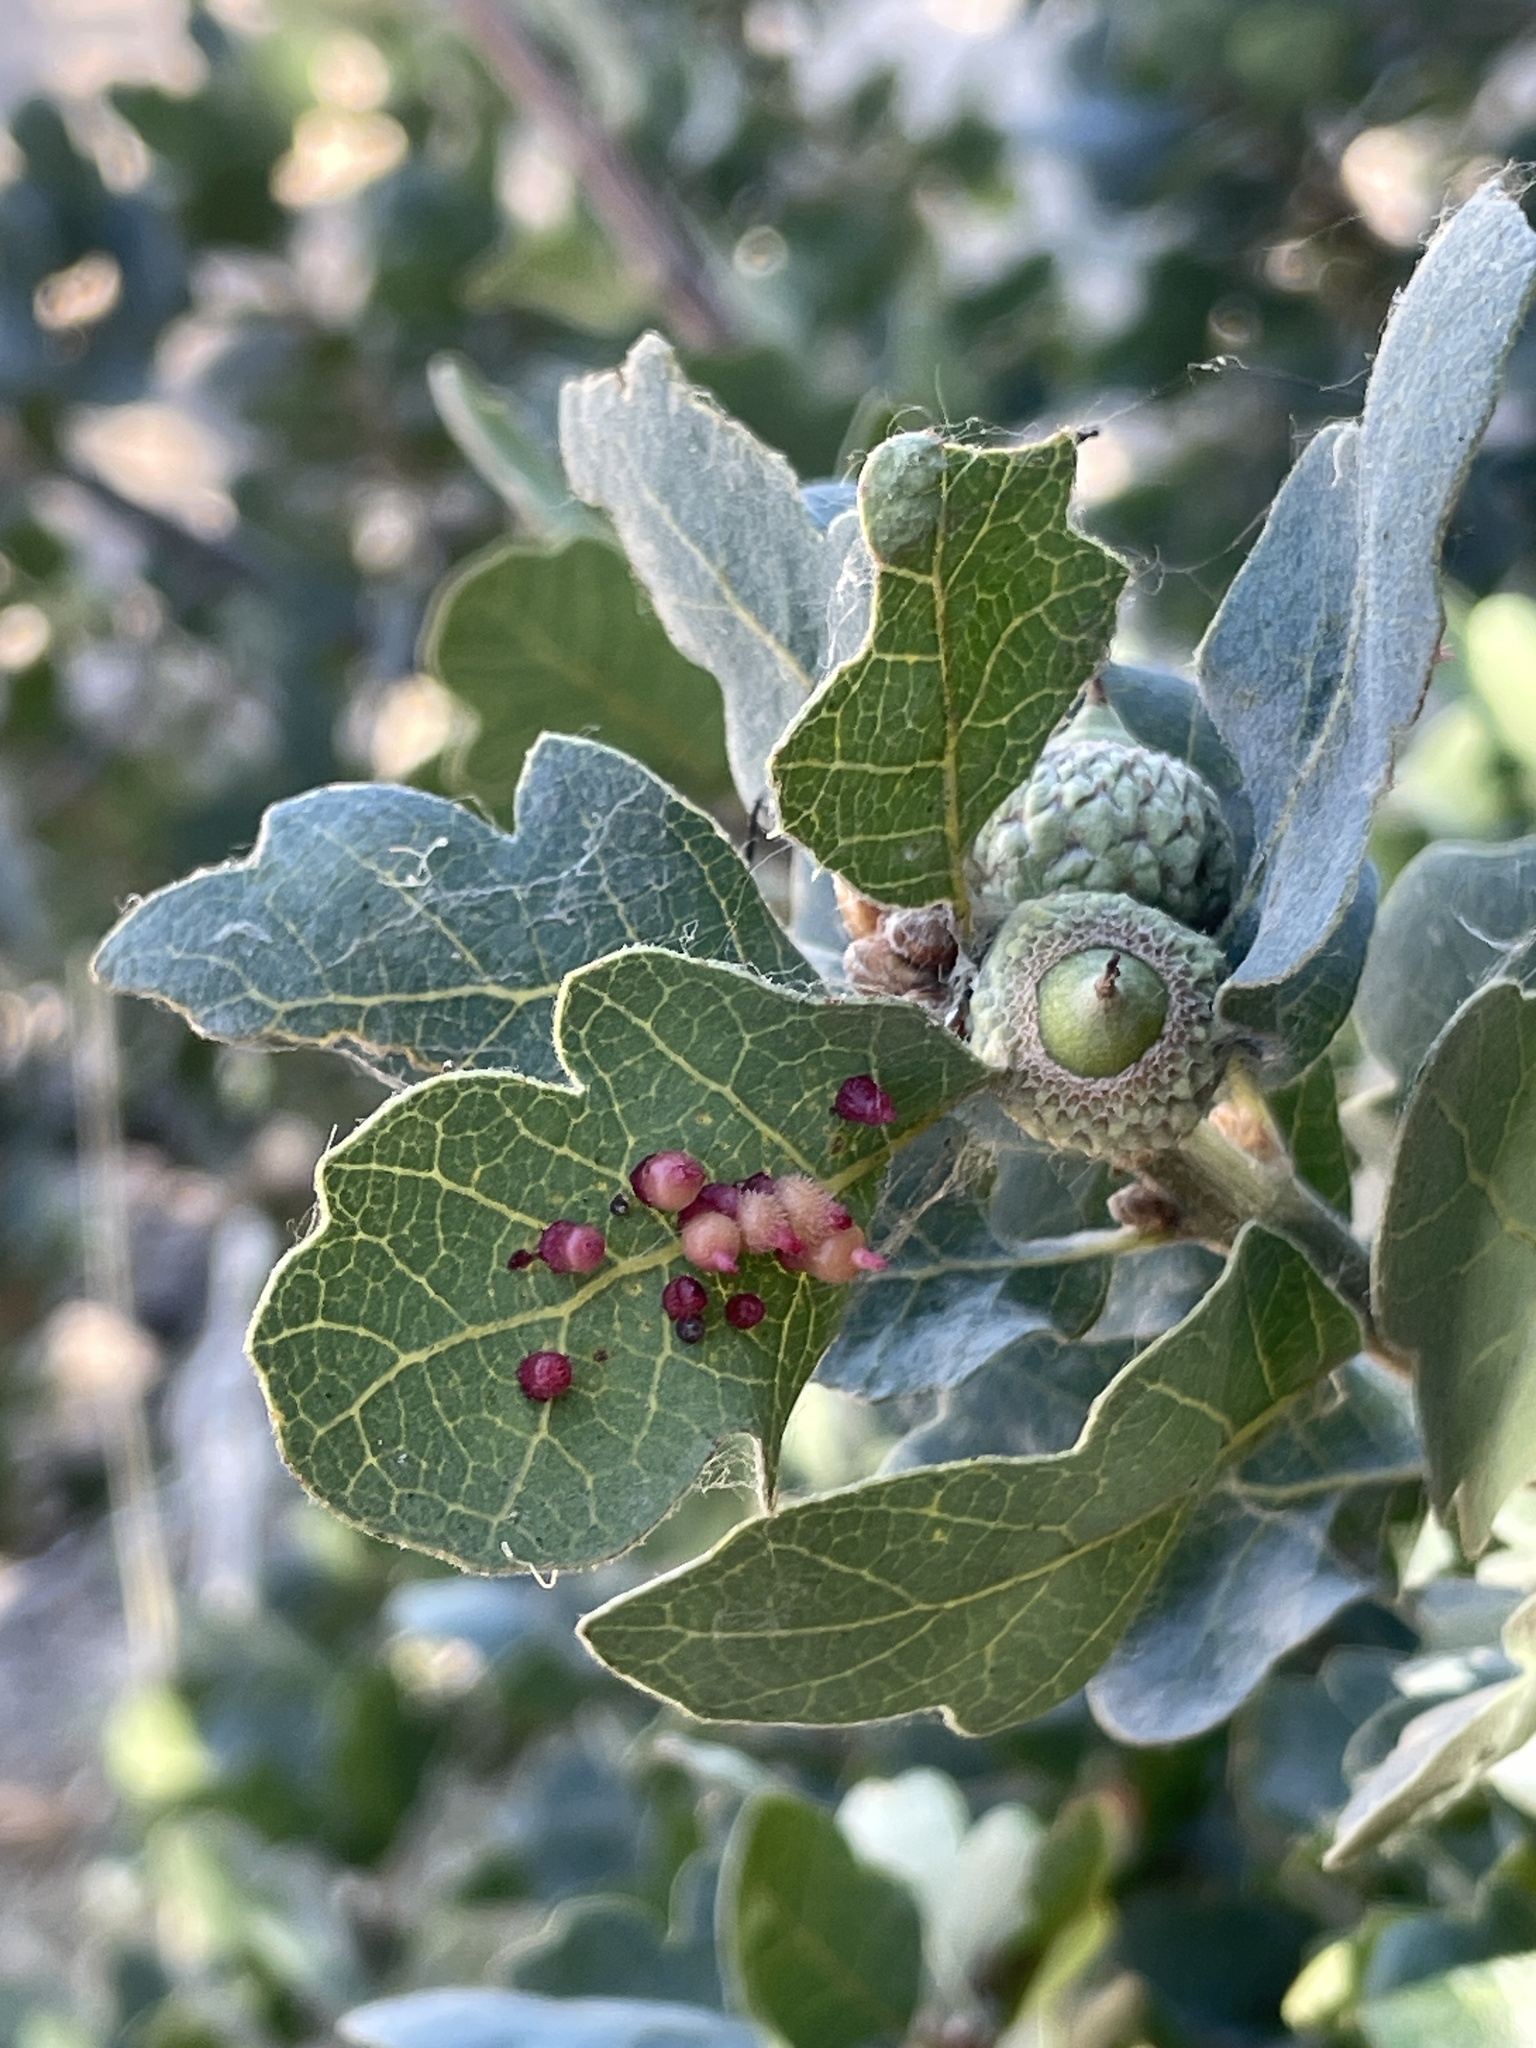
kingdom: Animalia
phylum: Arthropoda
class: Insecta
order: Hymenoptera
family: Cynipidae
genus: Andricus
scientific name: Andricus
